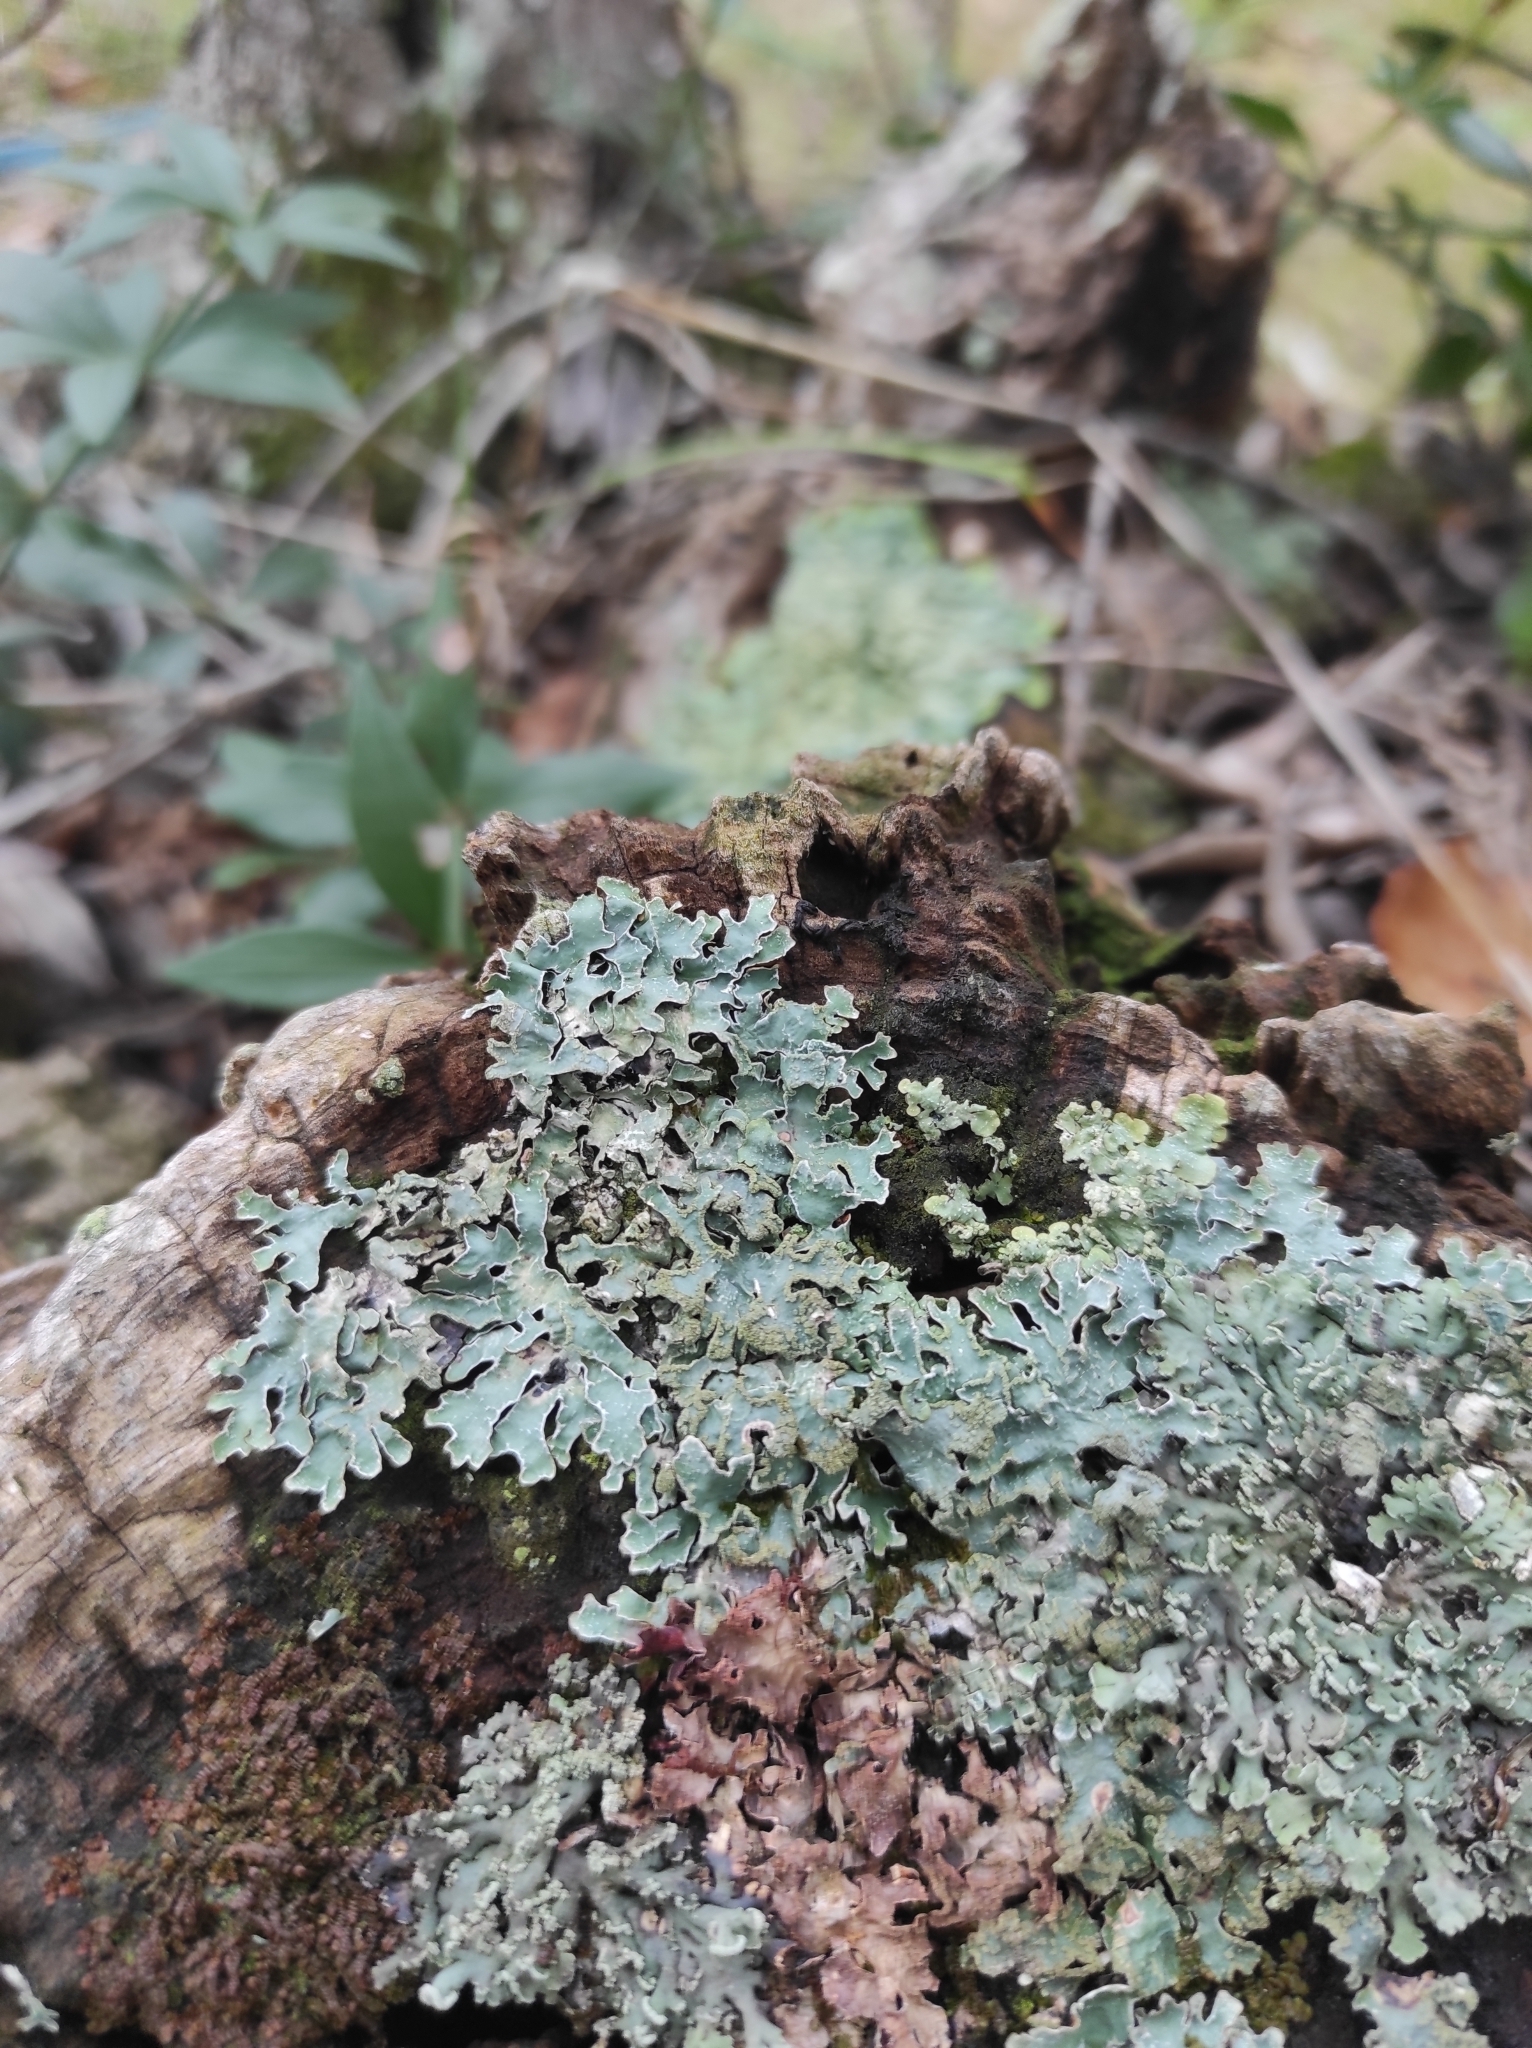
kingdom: Fungi
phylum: Ascomycota
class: Lecanoromycetes
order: Lecanorales
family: Parmeliaceae
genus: Parmelia
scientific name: Parmelia sulcata
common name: Netted shield lichen
